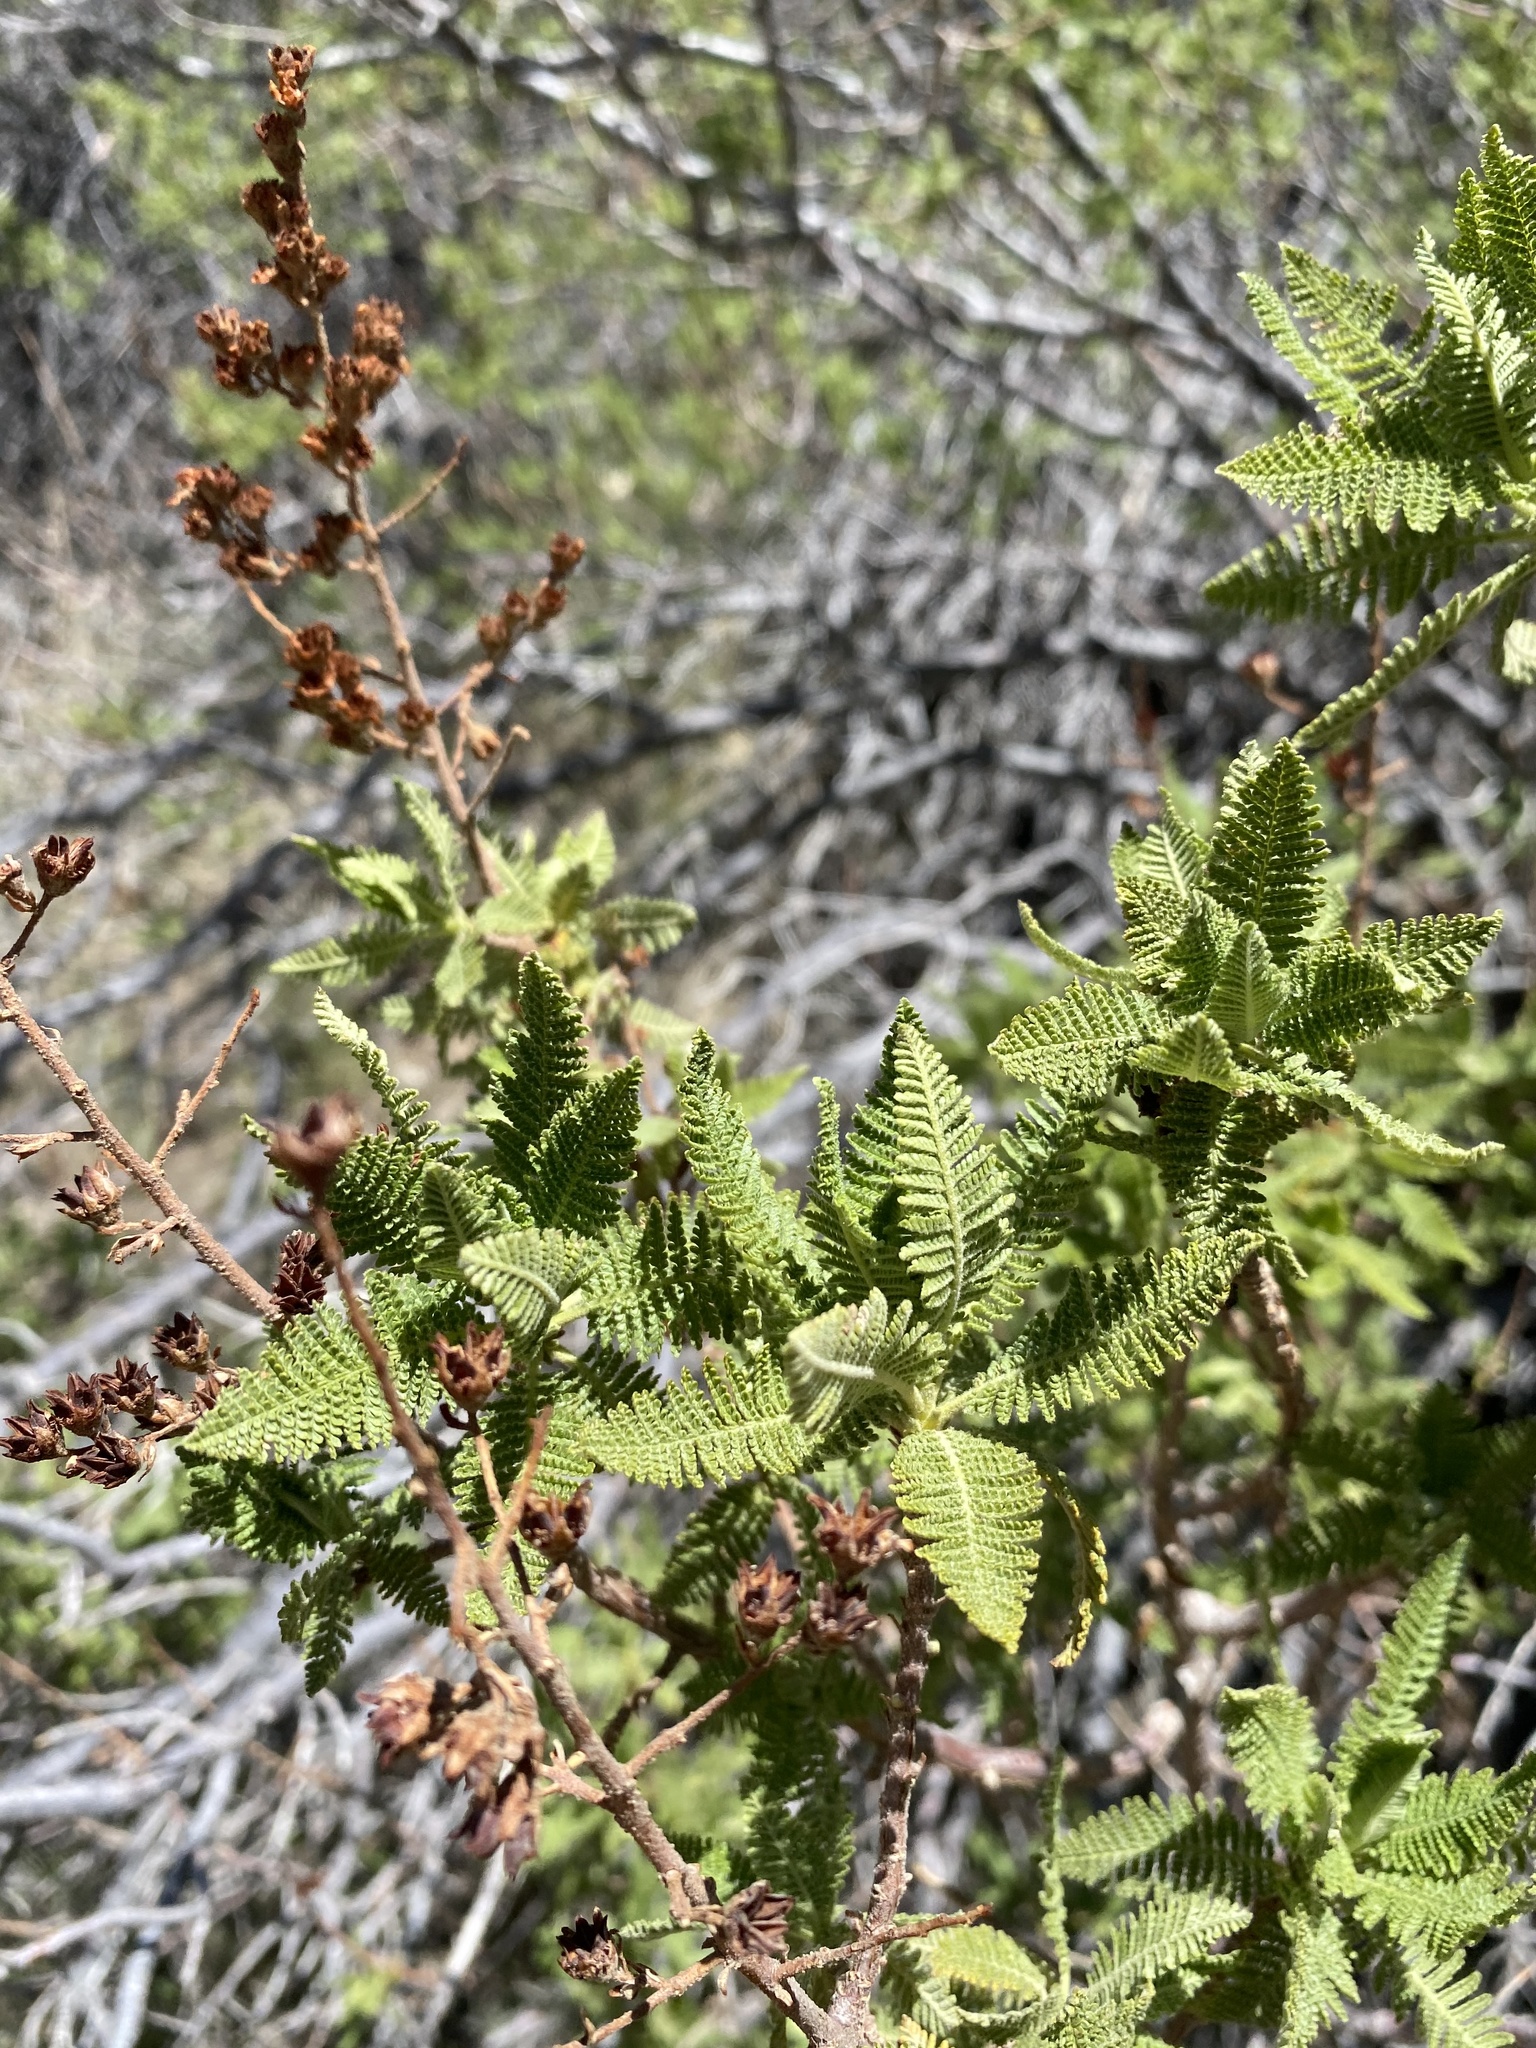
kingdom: Plantae
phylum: Tracheophyta
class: Magnoliopsida
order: Rosales
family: Rosaceae
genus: Chamaebatiaria
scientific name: Chamaebatiaria millefolium
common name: Fernbush
